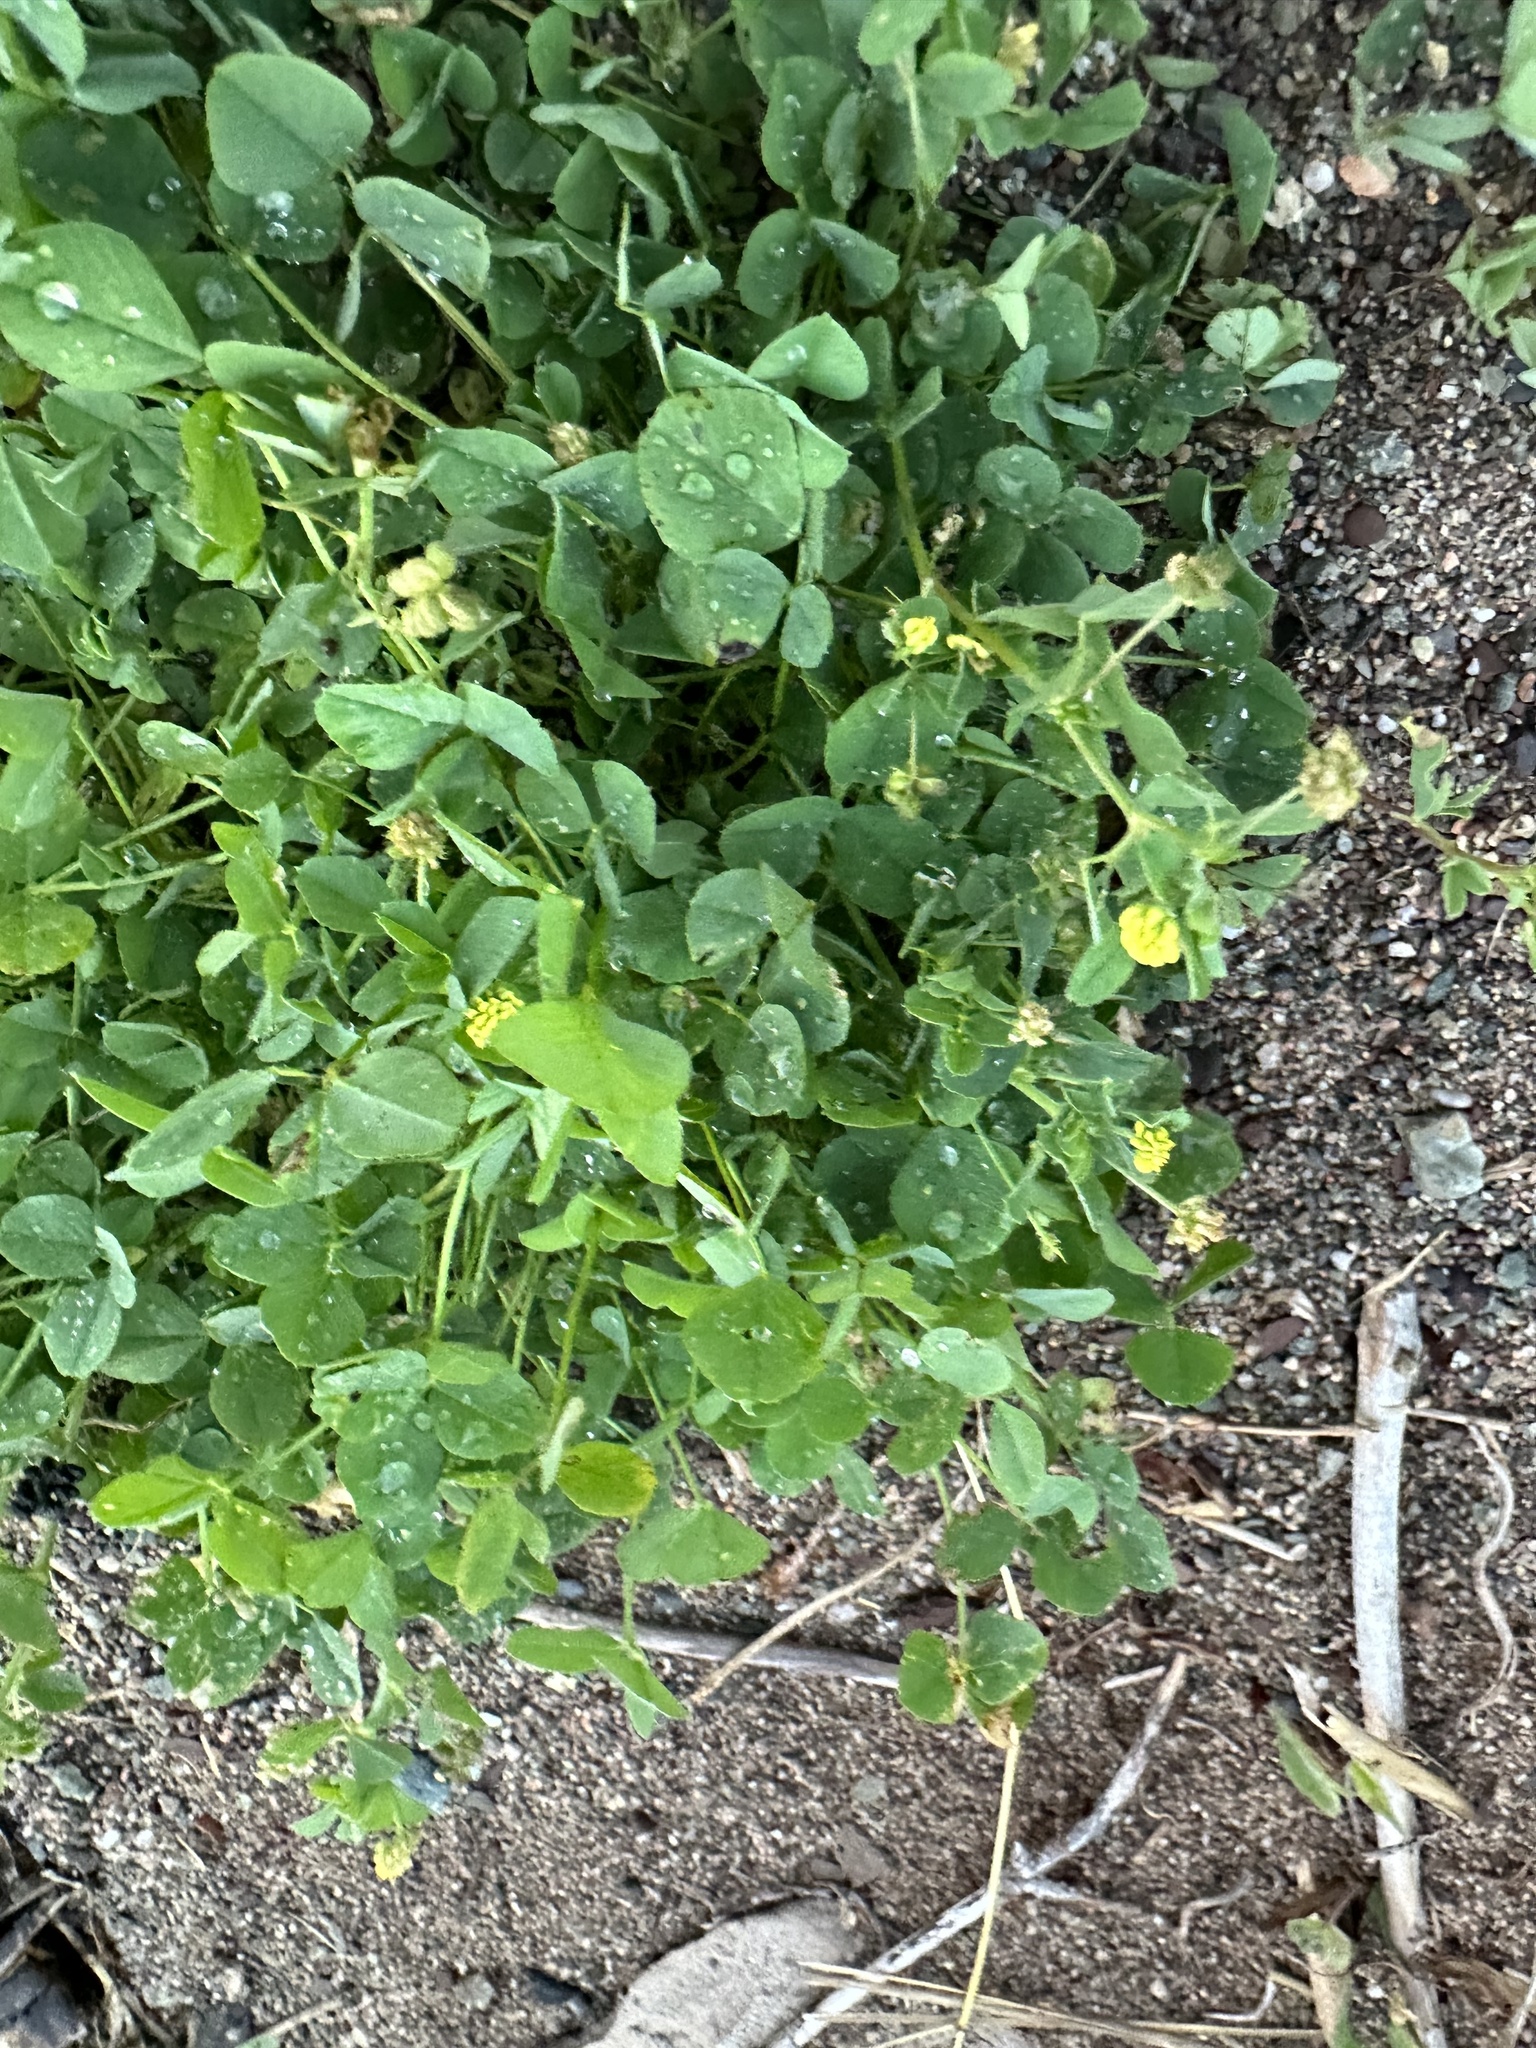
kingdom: Plantae
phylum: Tracheophyta
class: Magnoliopsida
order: Fabales
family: Fabaceae
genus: Medicago
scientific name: Medicago lupulina
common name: Black medick
